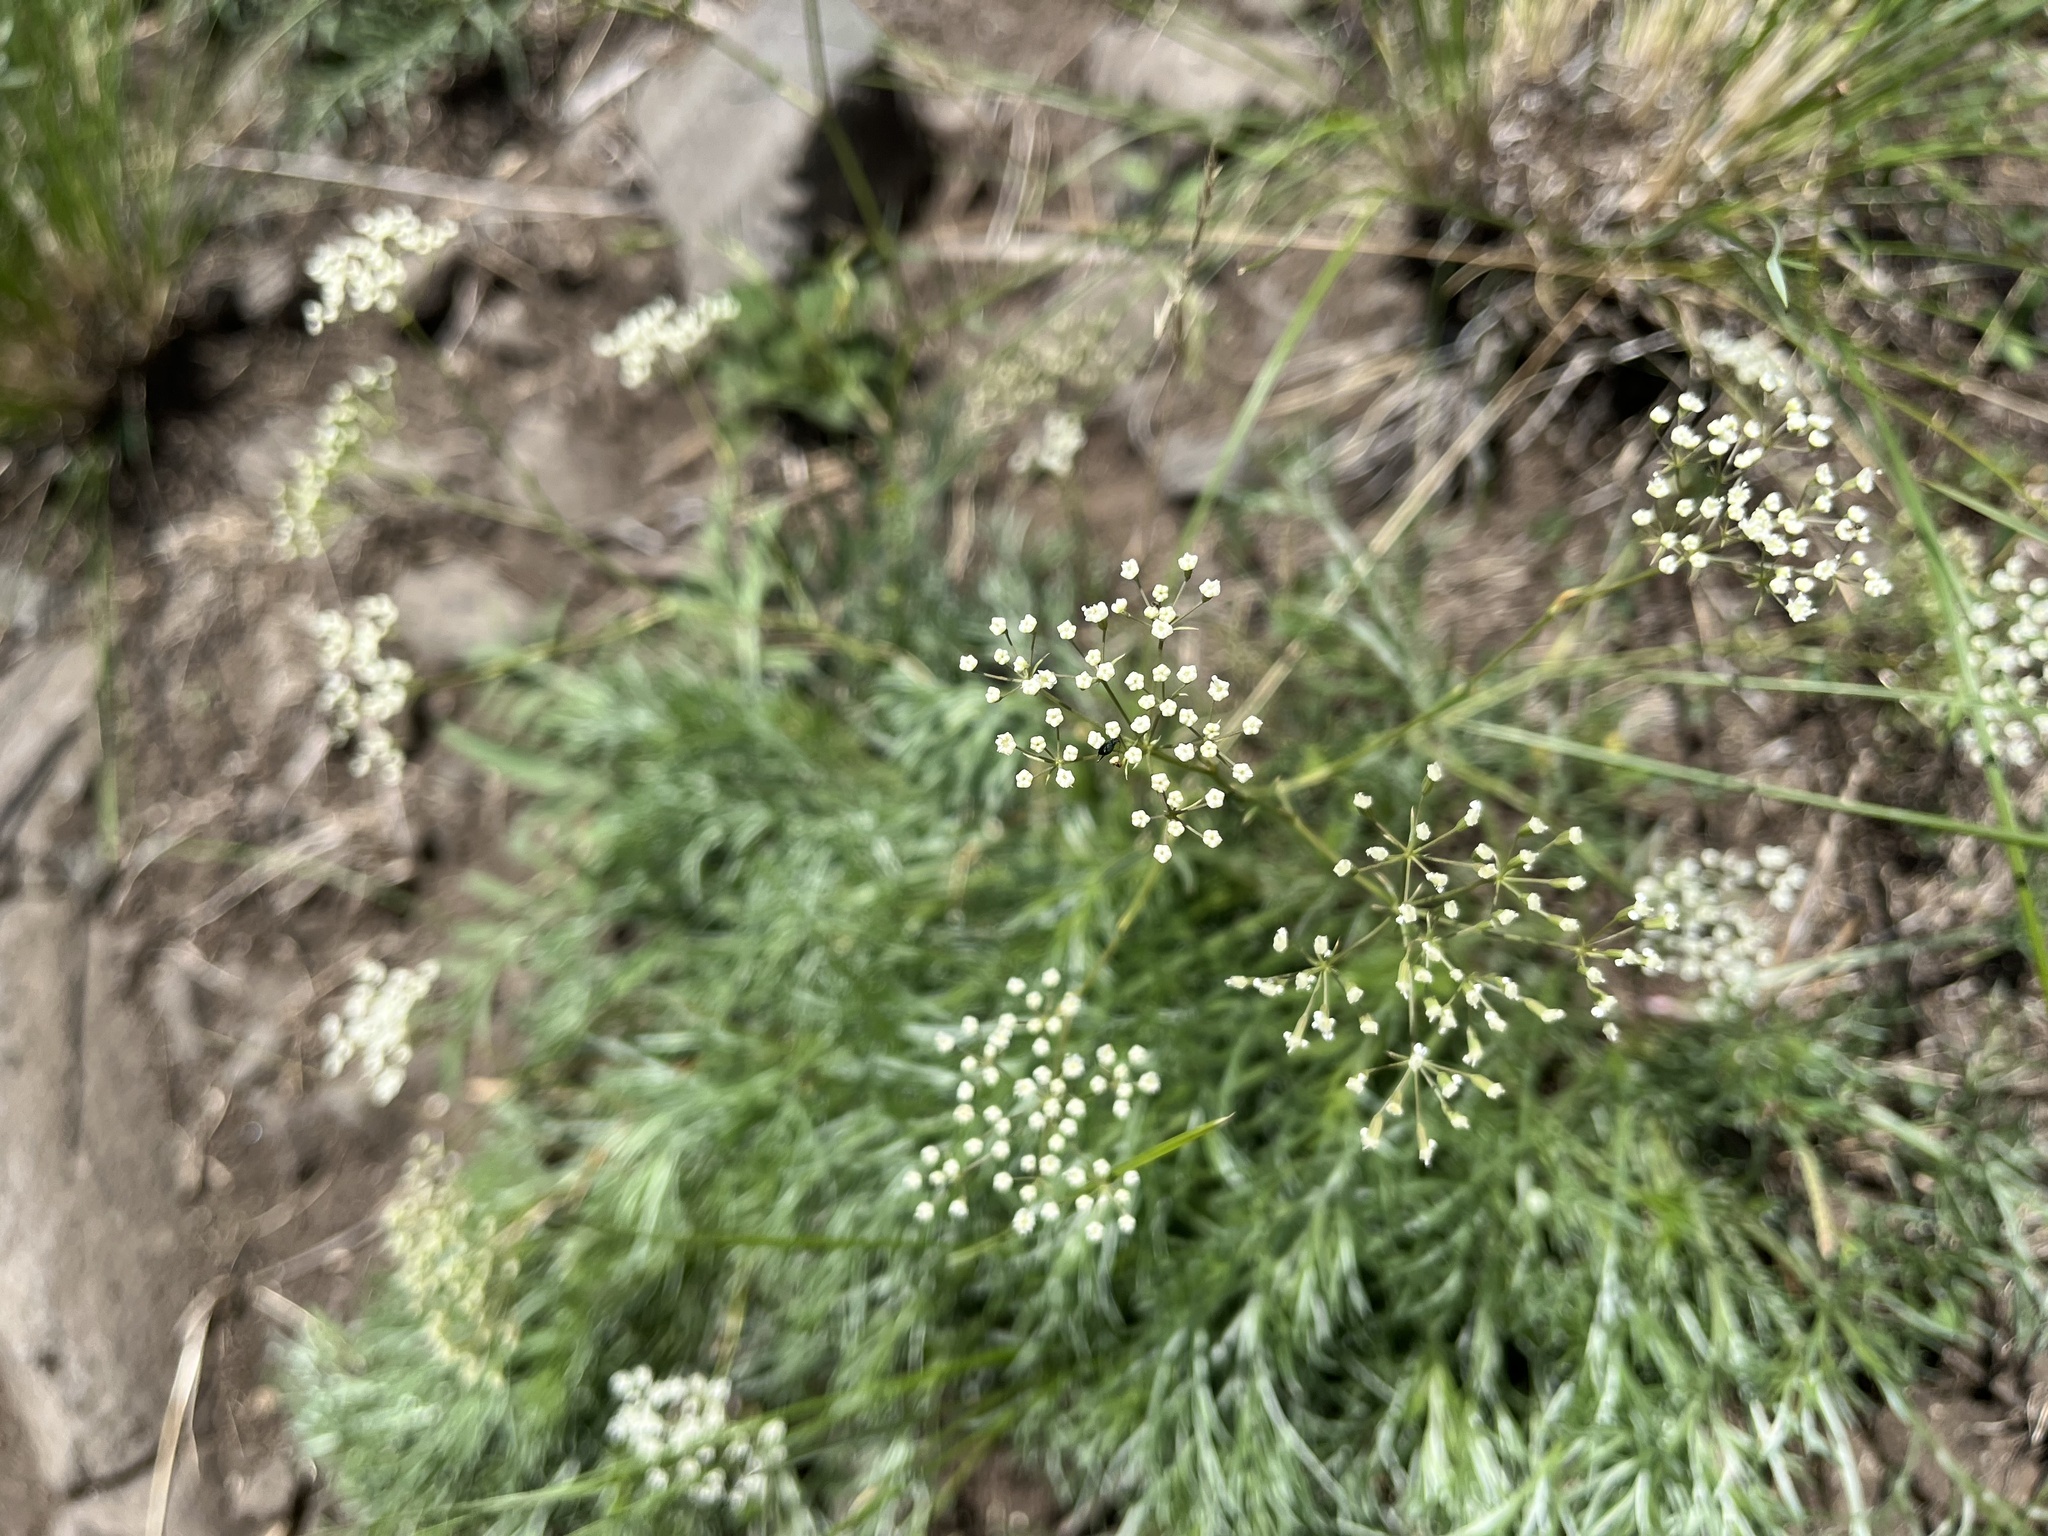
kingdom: Plantae
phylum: Tracheophyta
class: Magnoliopsida
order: Apiales
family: Apiaceae
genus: Seseli
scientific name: Seseli osseum
